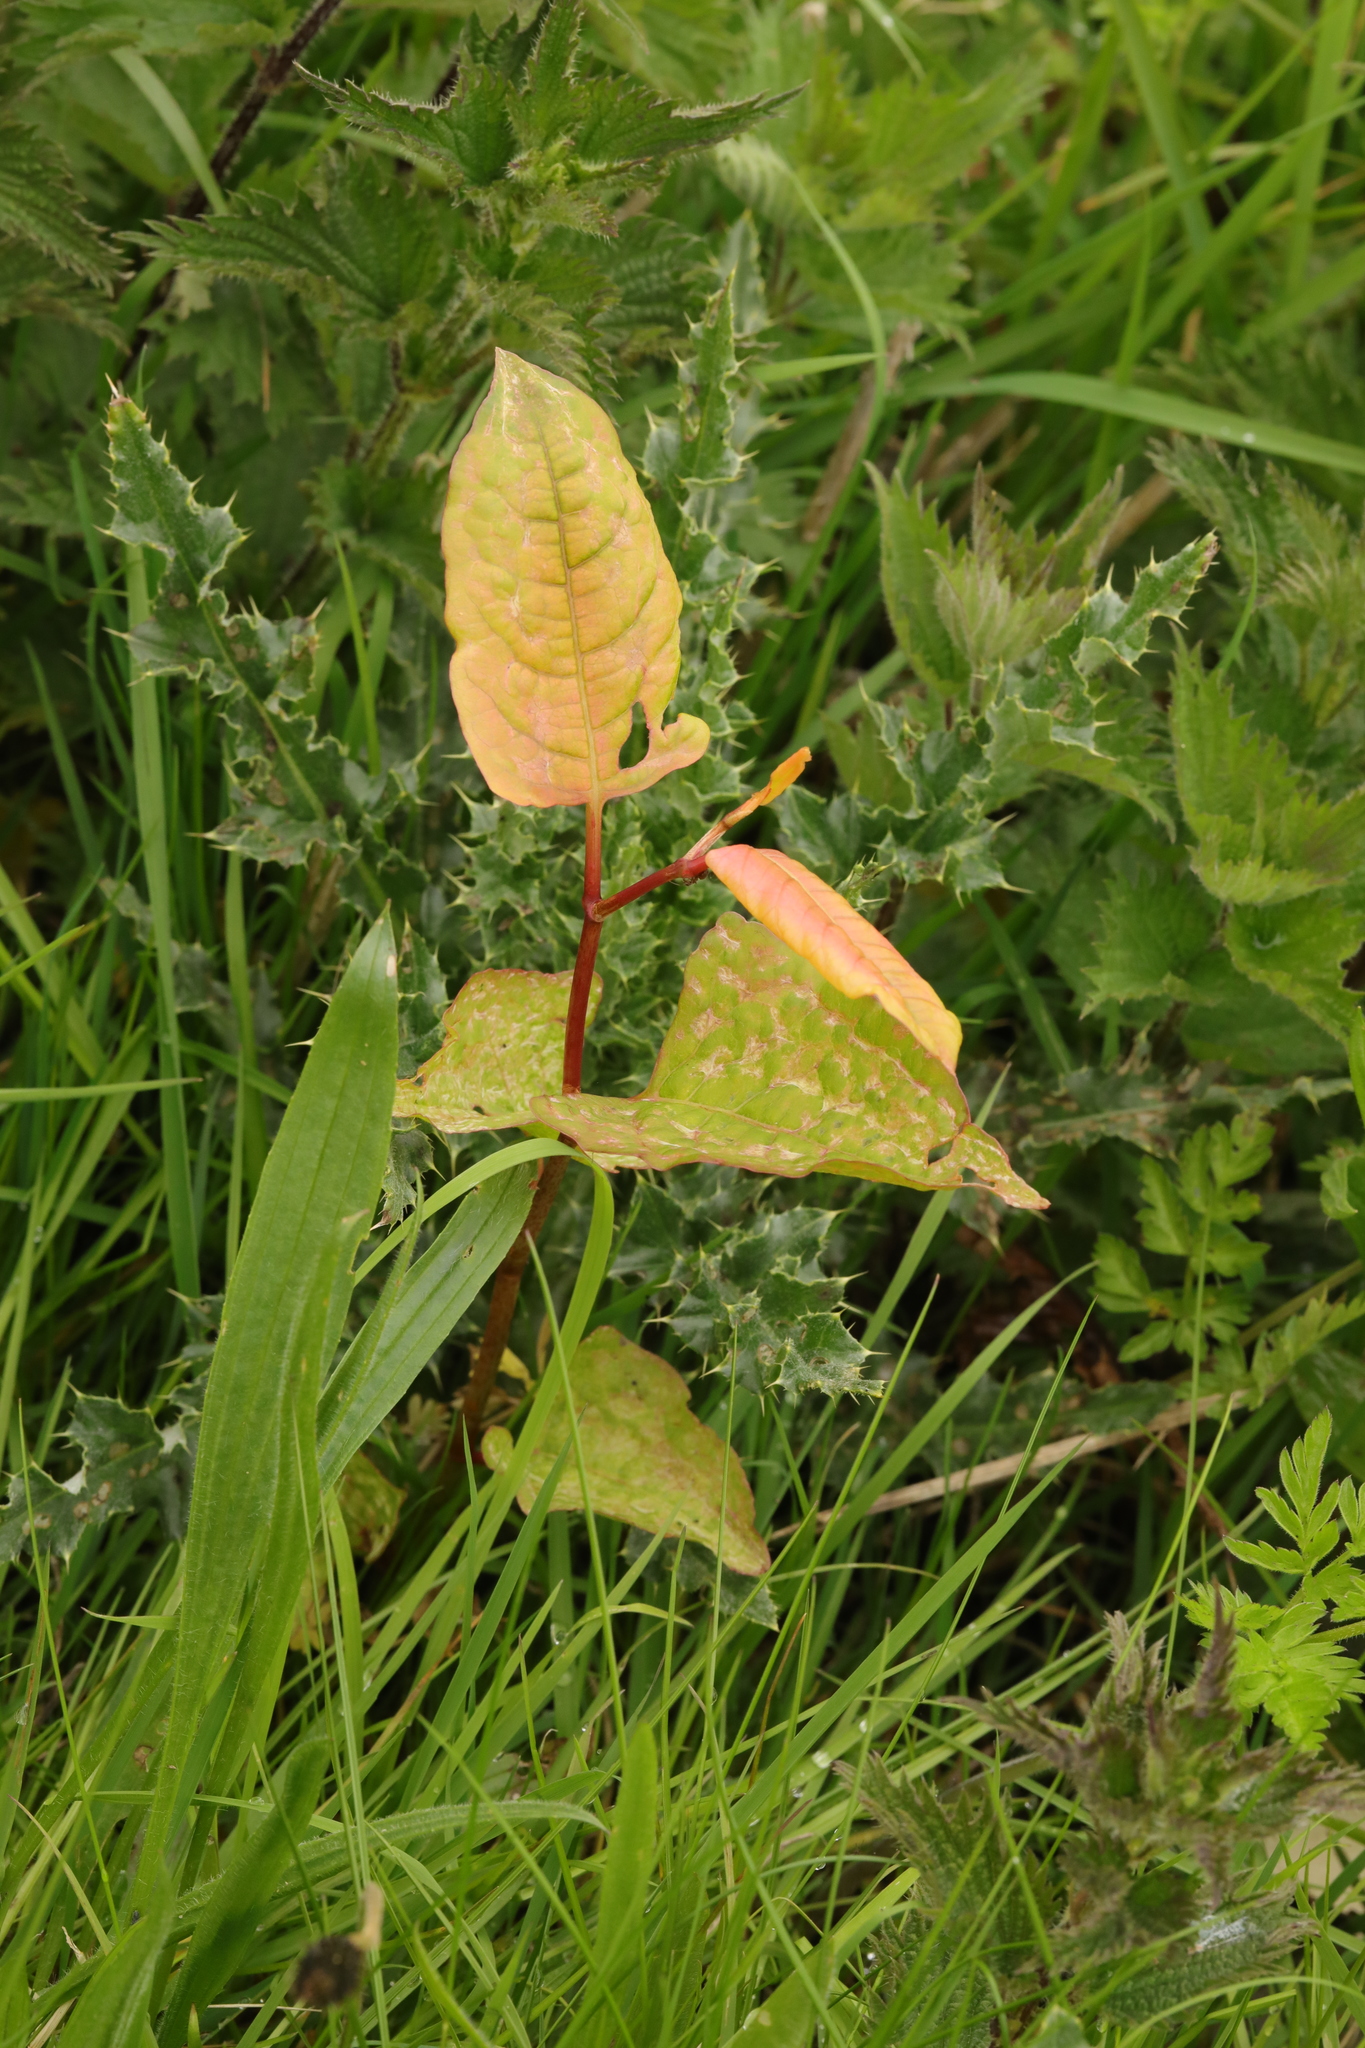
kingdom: Plantae
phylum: Tracheophyta
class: Magnoliopsida
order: Caryophyllales
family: Polygonaceae
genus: Reynoutria
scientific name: Reynoutria japonica
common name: Japanese knotweed
